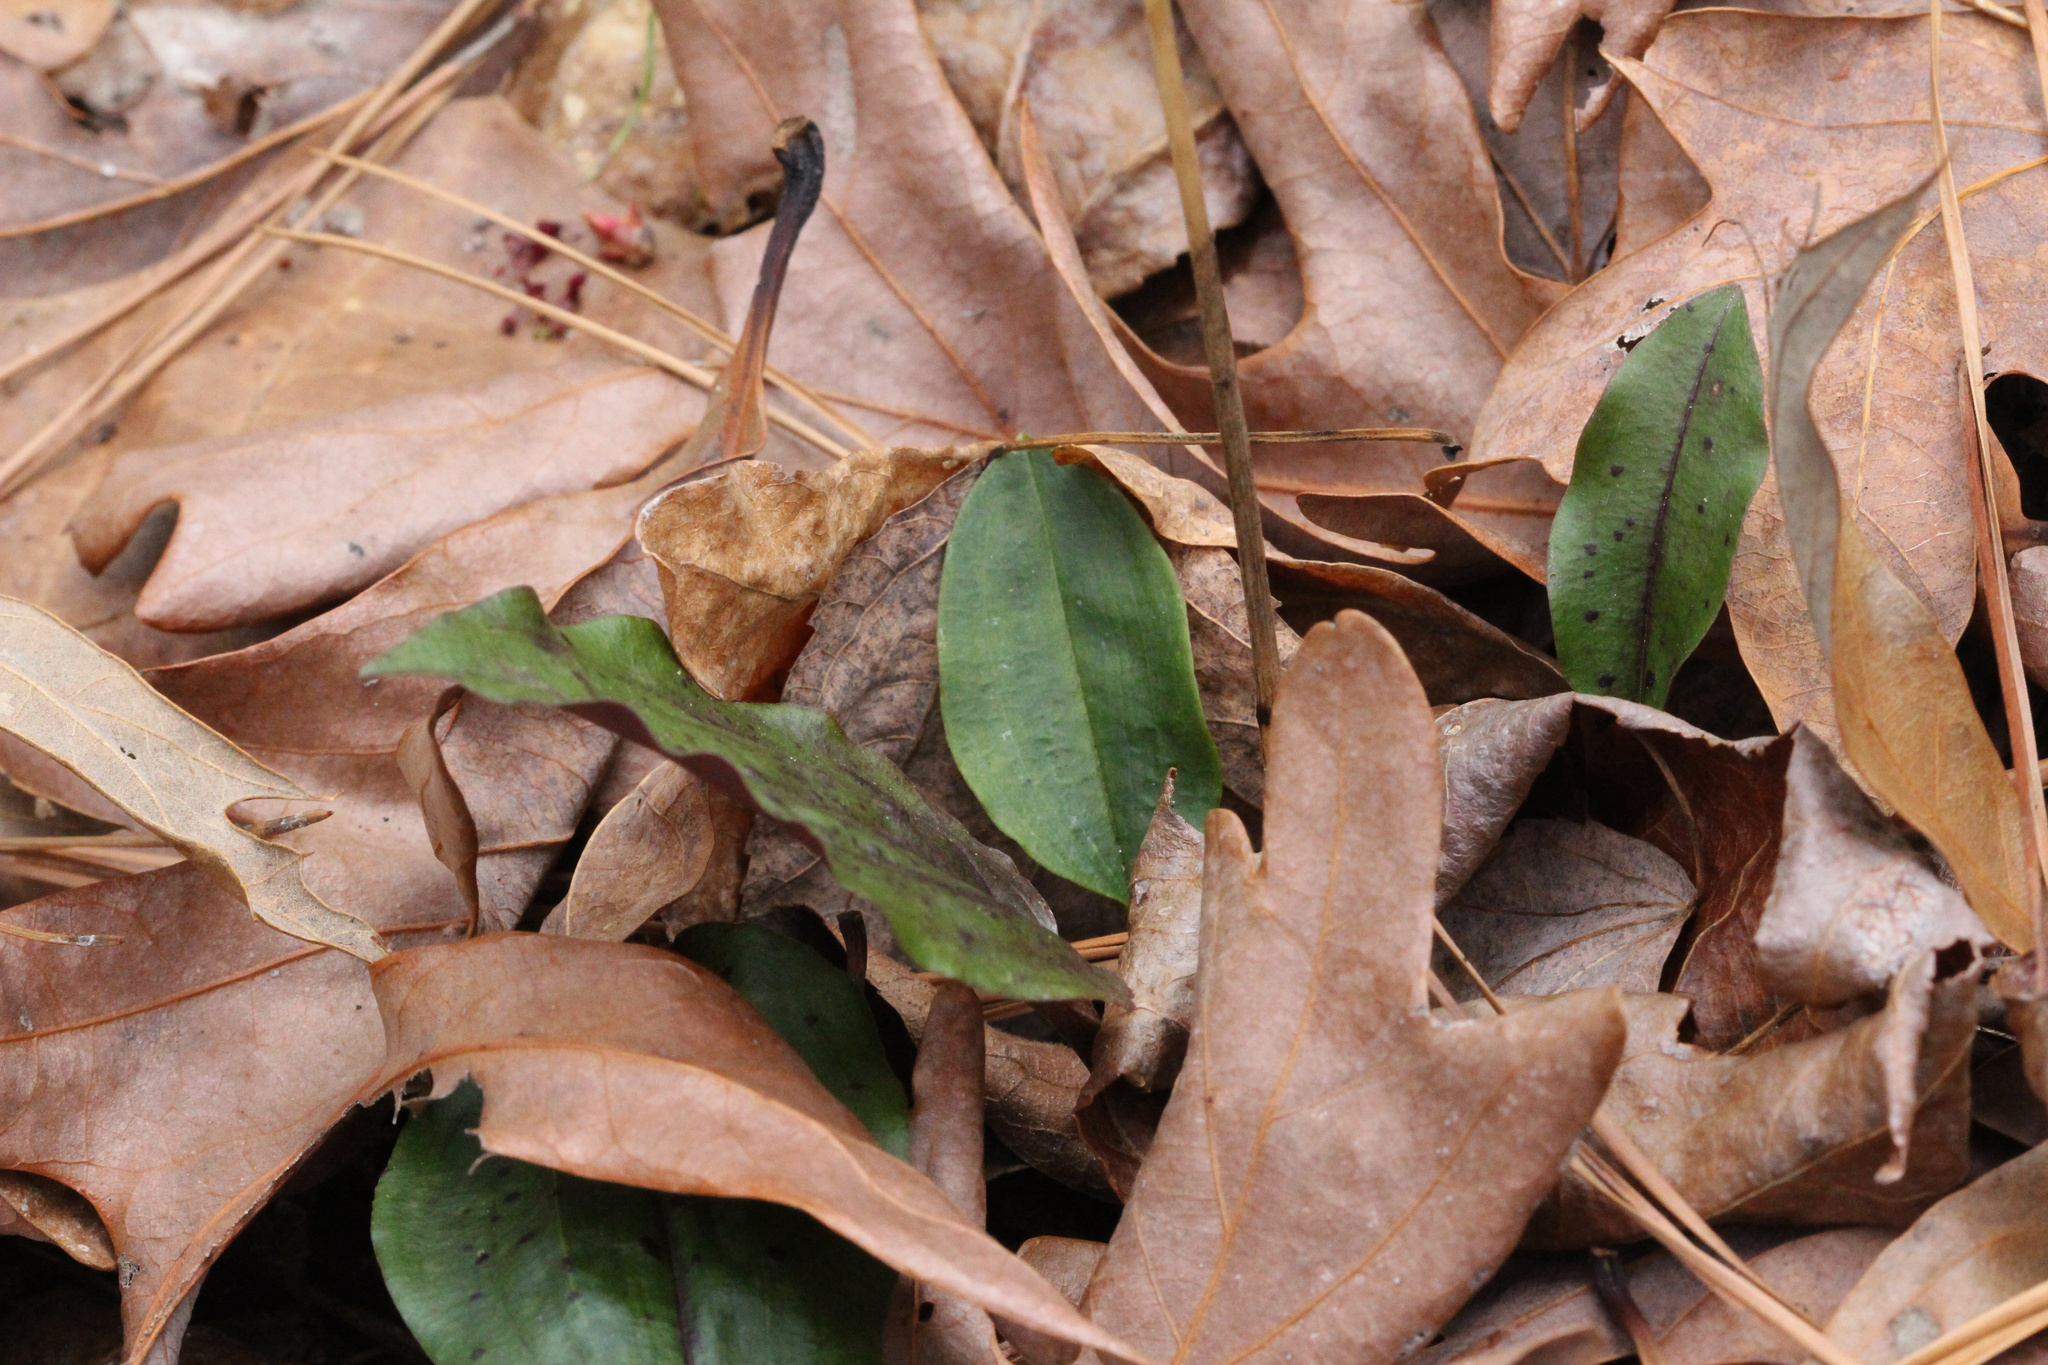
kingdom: Plantae
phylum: Tracheophyta
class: Liliopsida
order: Asparagales
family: Orchidaceae
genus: Tipularia
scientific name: Tipularia discolor
